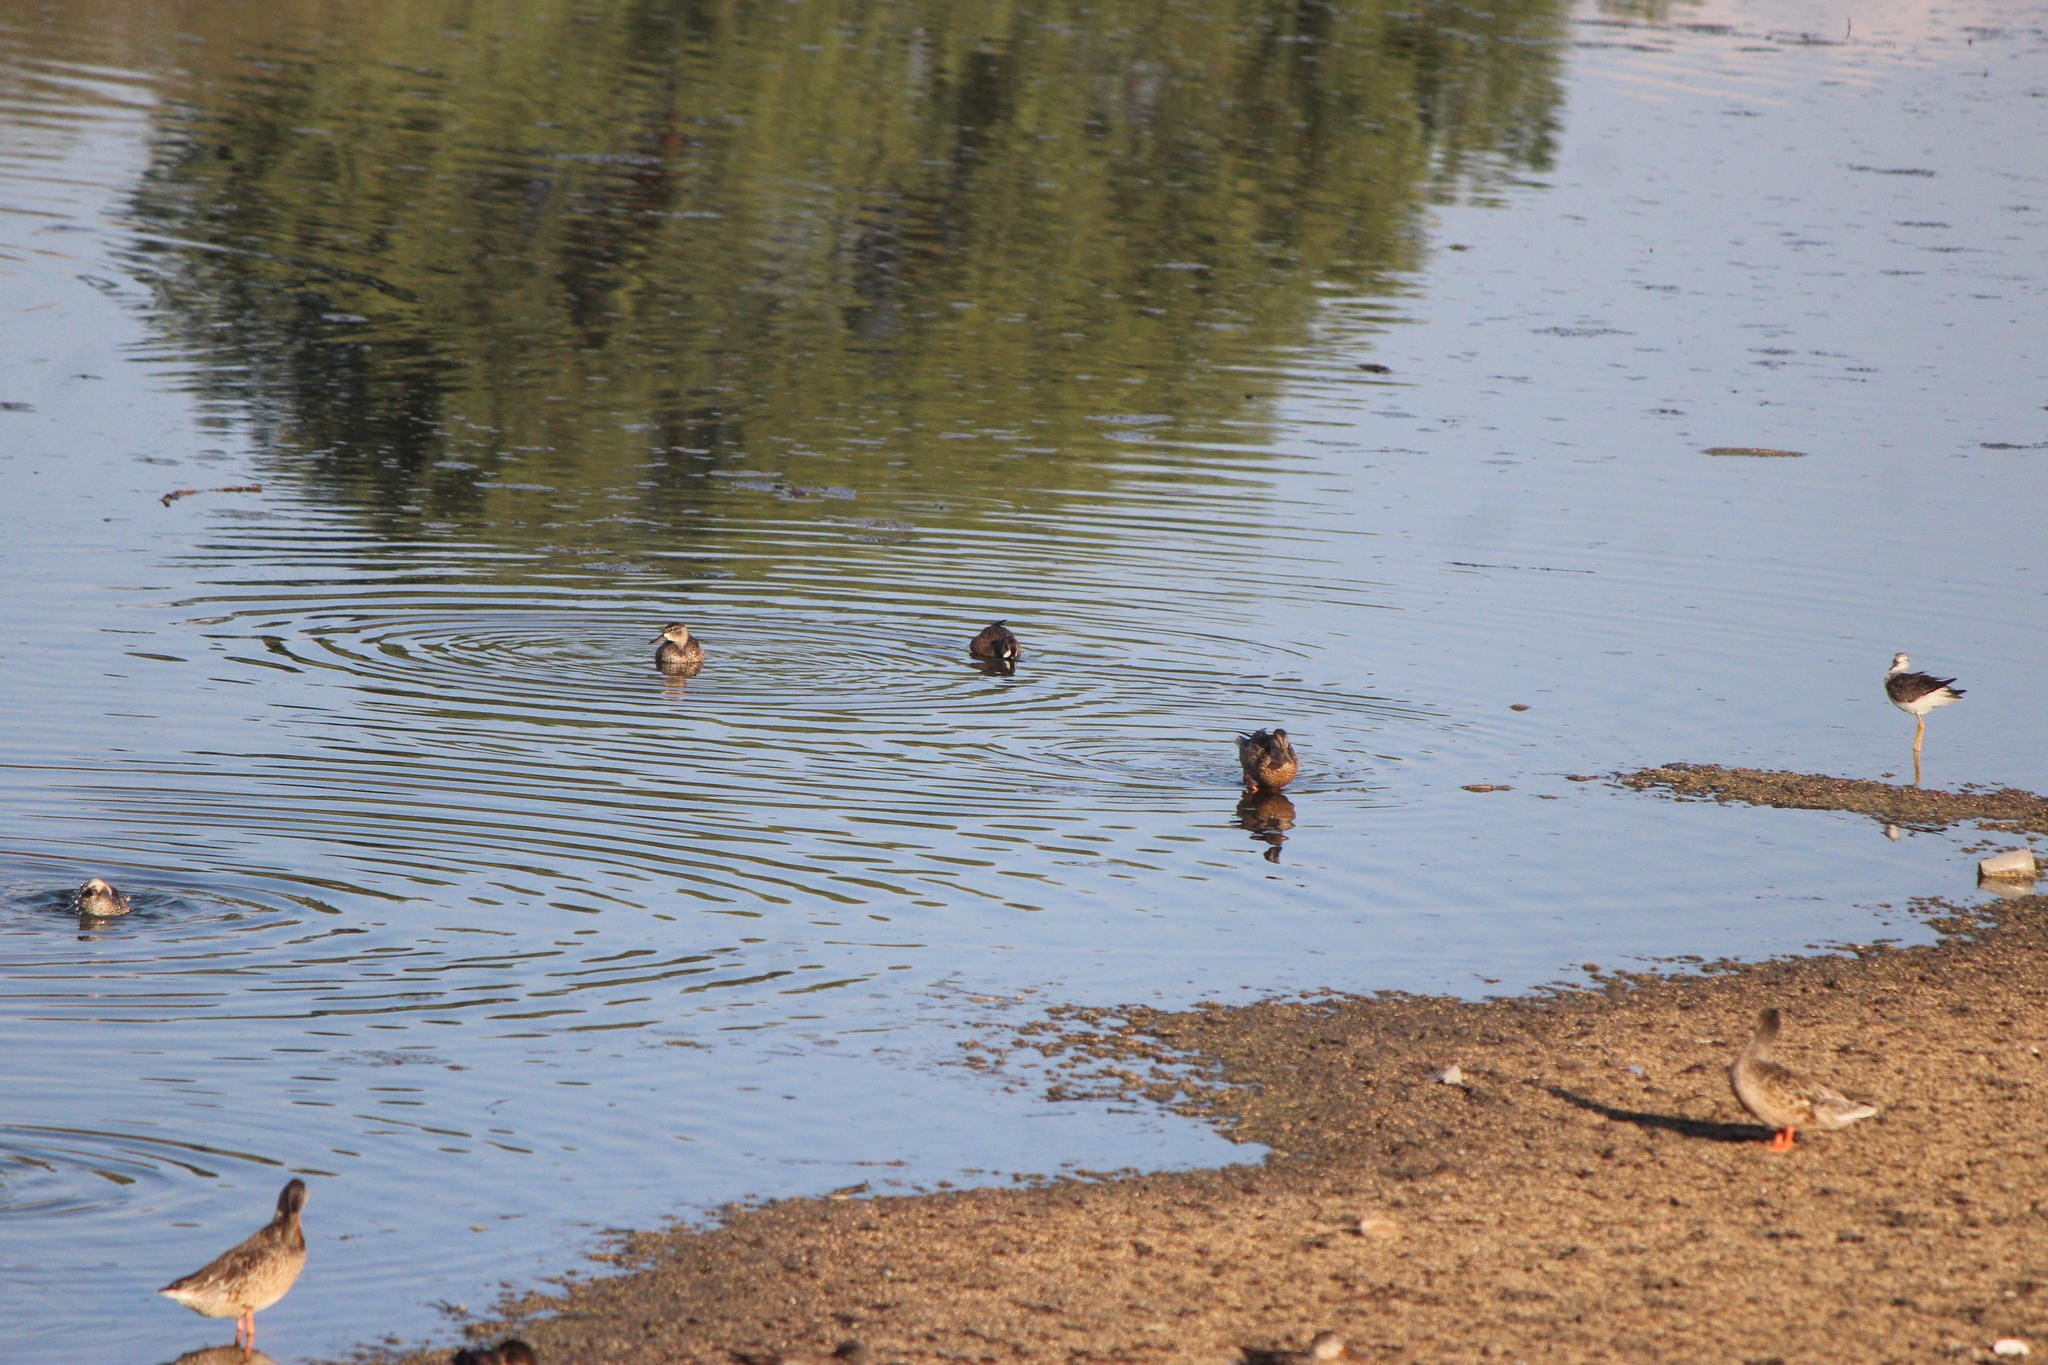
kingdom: Animalia
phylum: Chordata
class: Aves
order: Anseriformes
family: Anatidae
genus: Spatula
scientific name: Spatula discors
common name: Blue-winged teal
